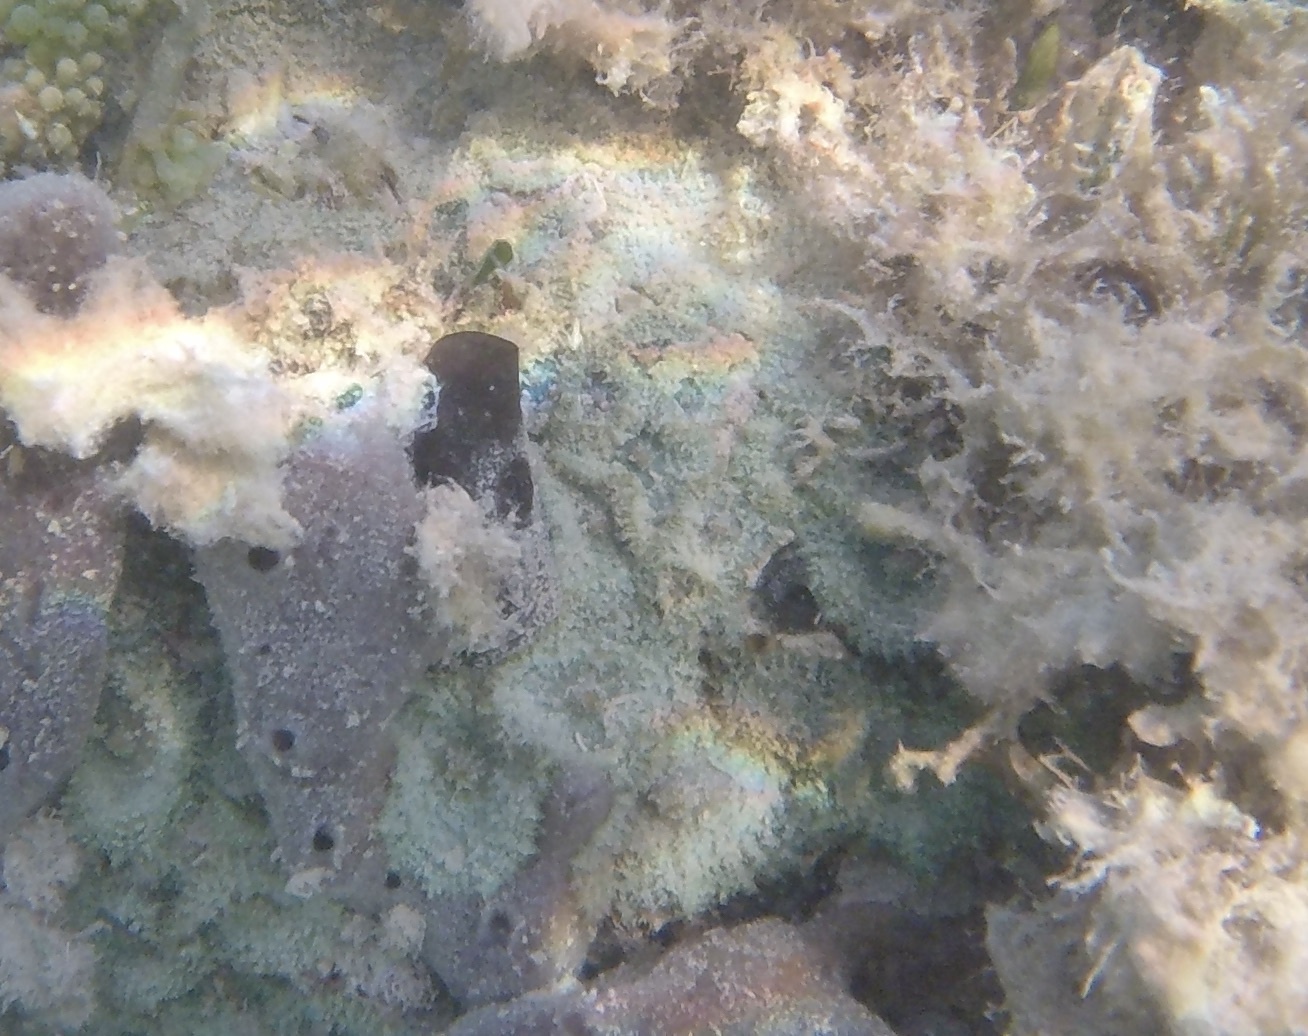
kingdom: Animalia
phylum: Cnidaria
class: Anthozoa
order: Corallimorpharia
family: Discosomidae
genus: Discosoma
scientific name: Discosoma carlgreni
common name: Forked-tentacle corallimorpharian
